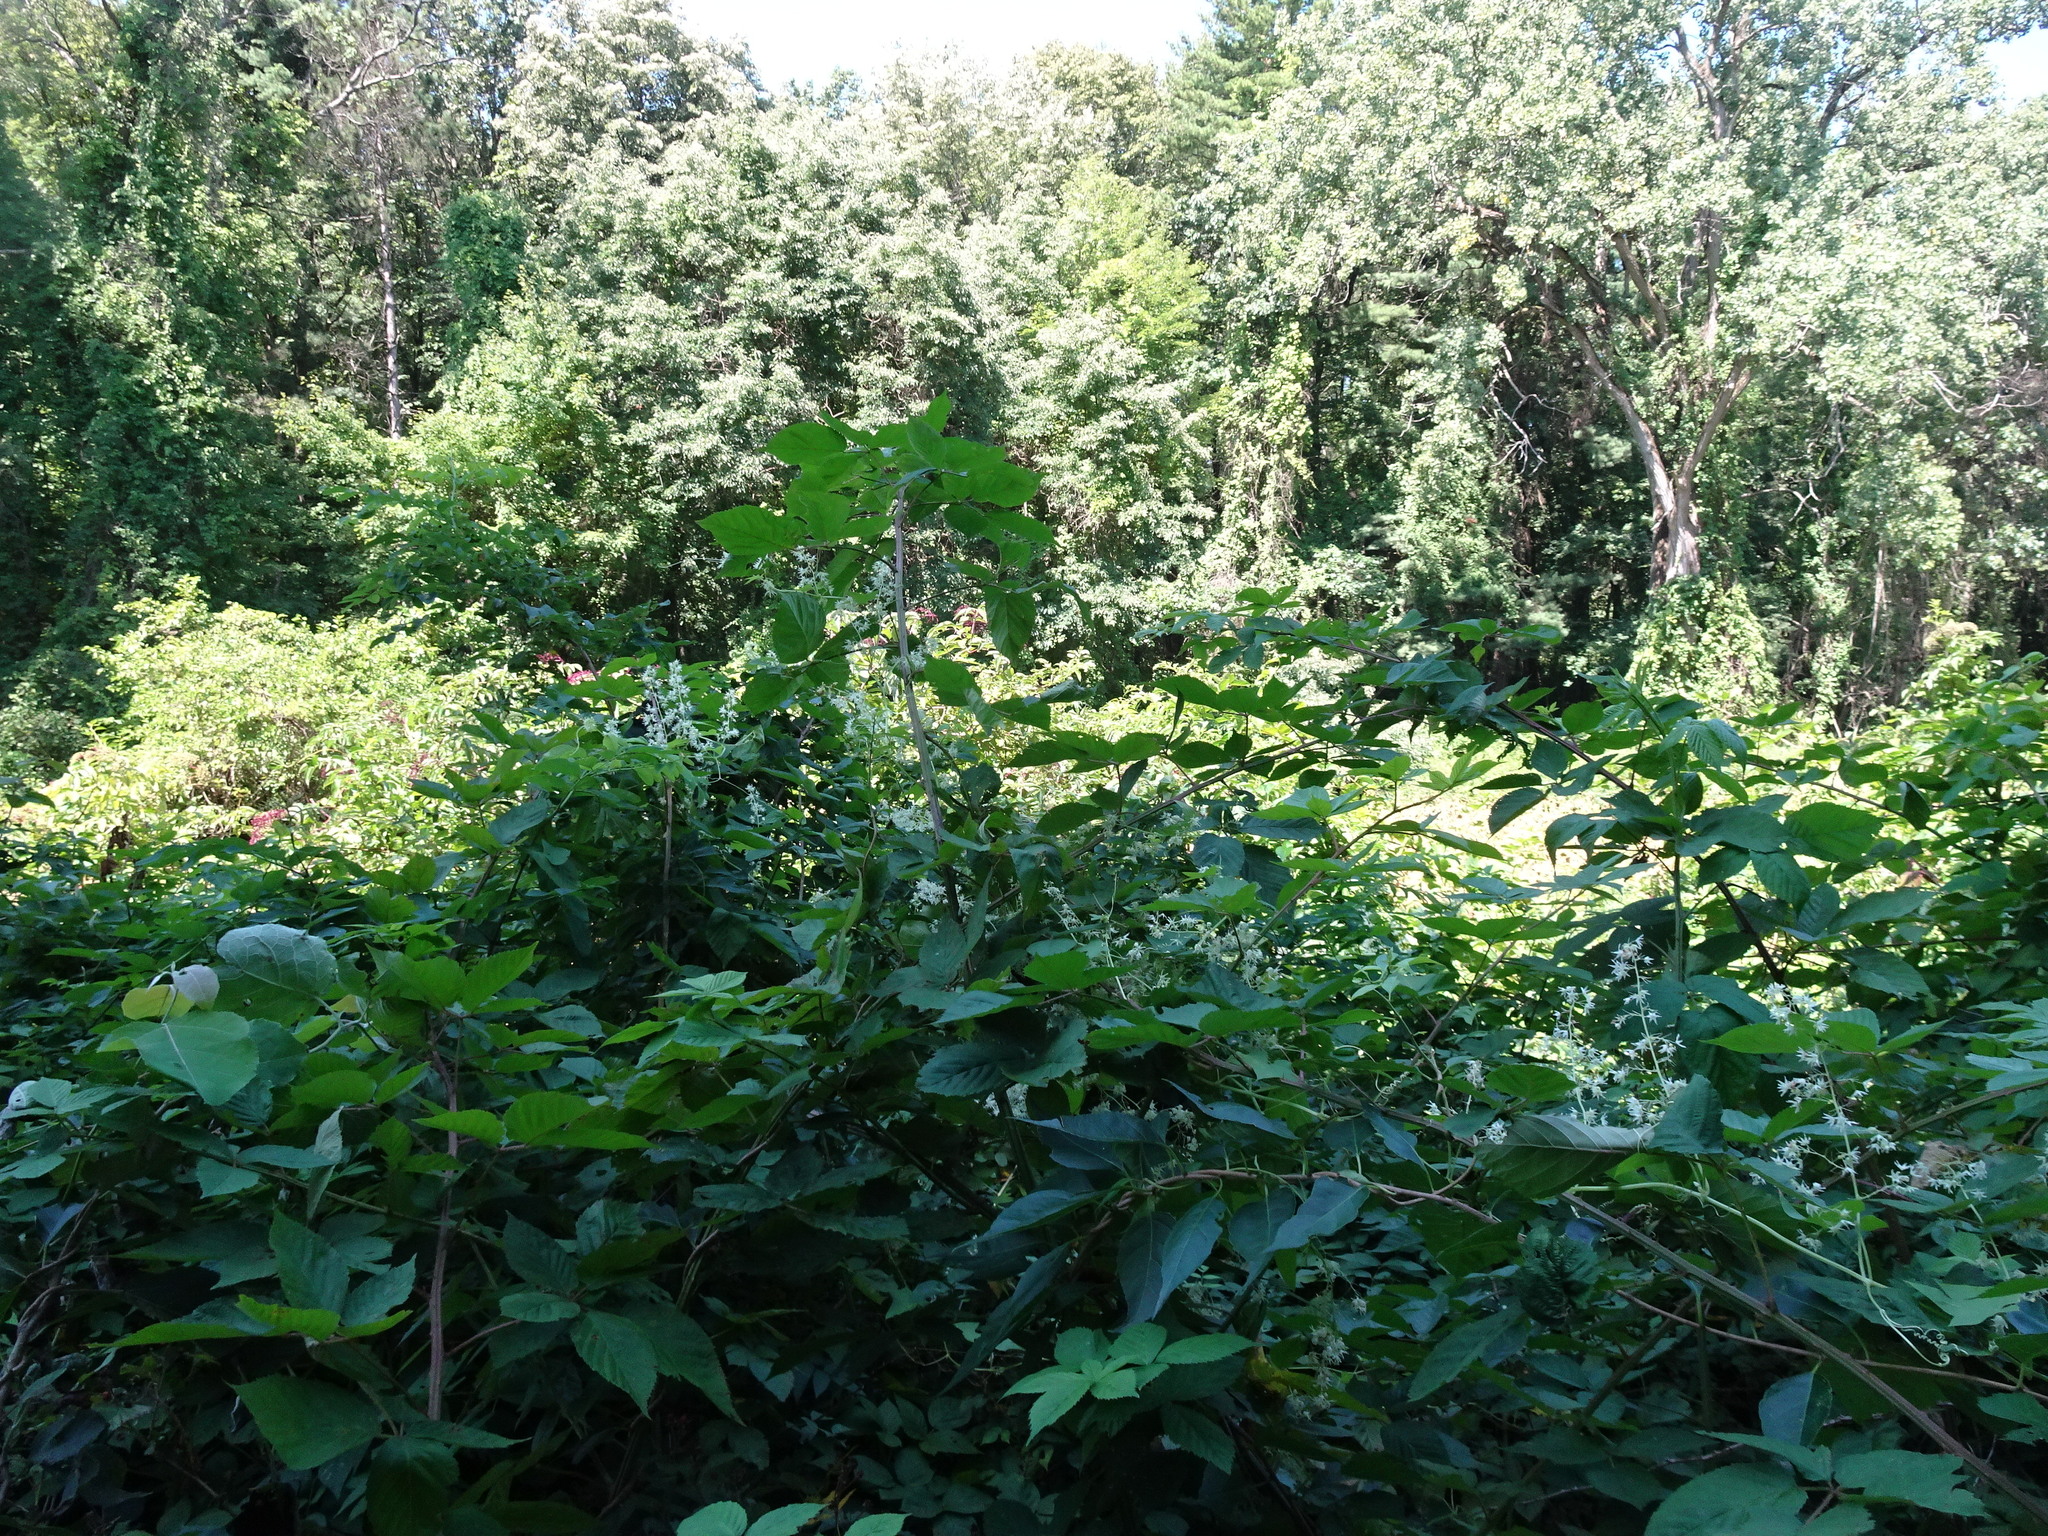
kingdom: Plantae
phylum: Tracheophyta
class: Magnoliopsida
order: Cucurbitales
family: Cucurbitaceae
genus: Echinocystis
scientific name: Echinocystis lobata
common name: Wild cucumber
